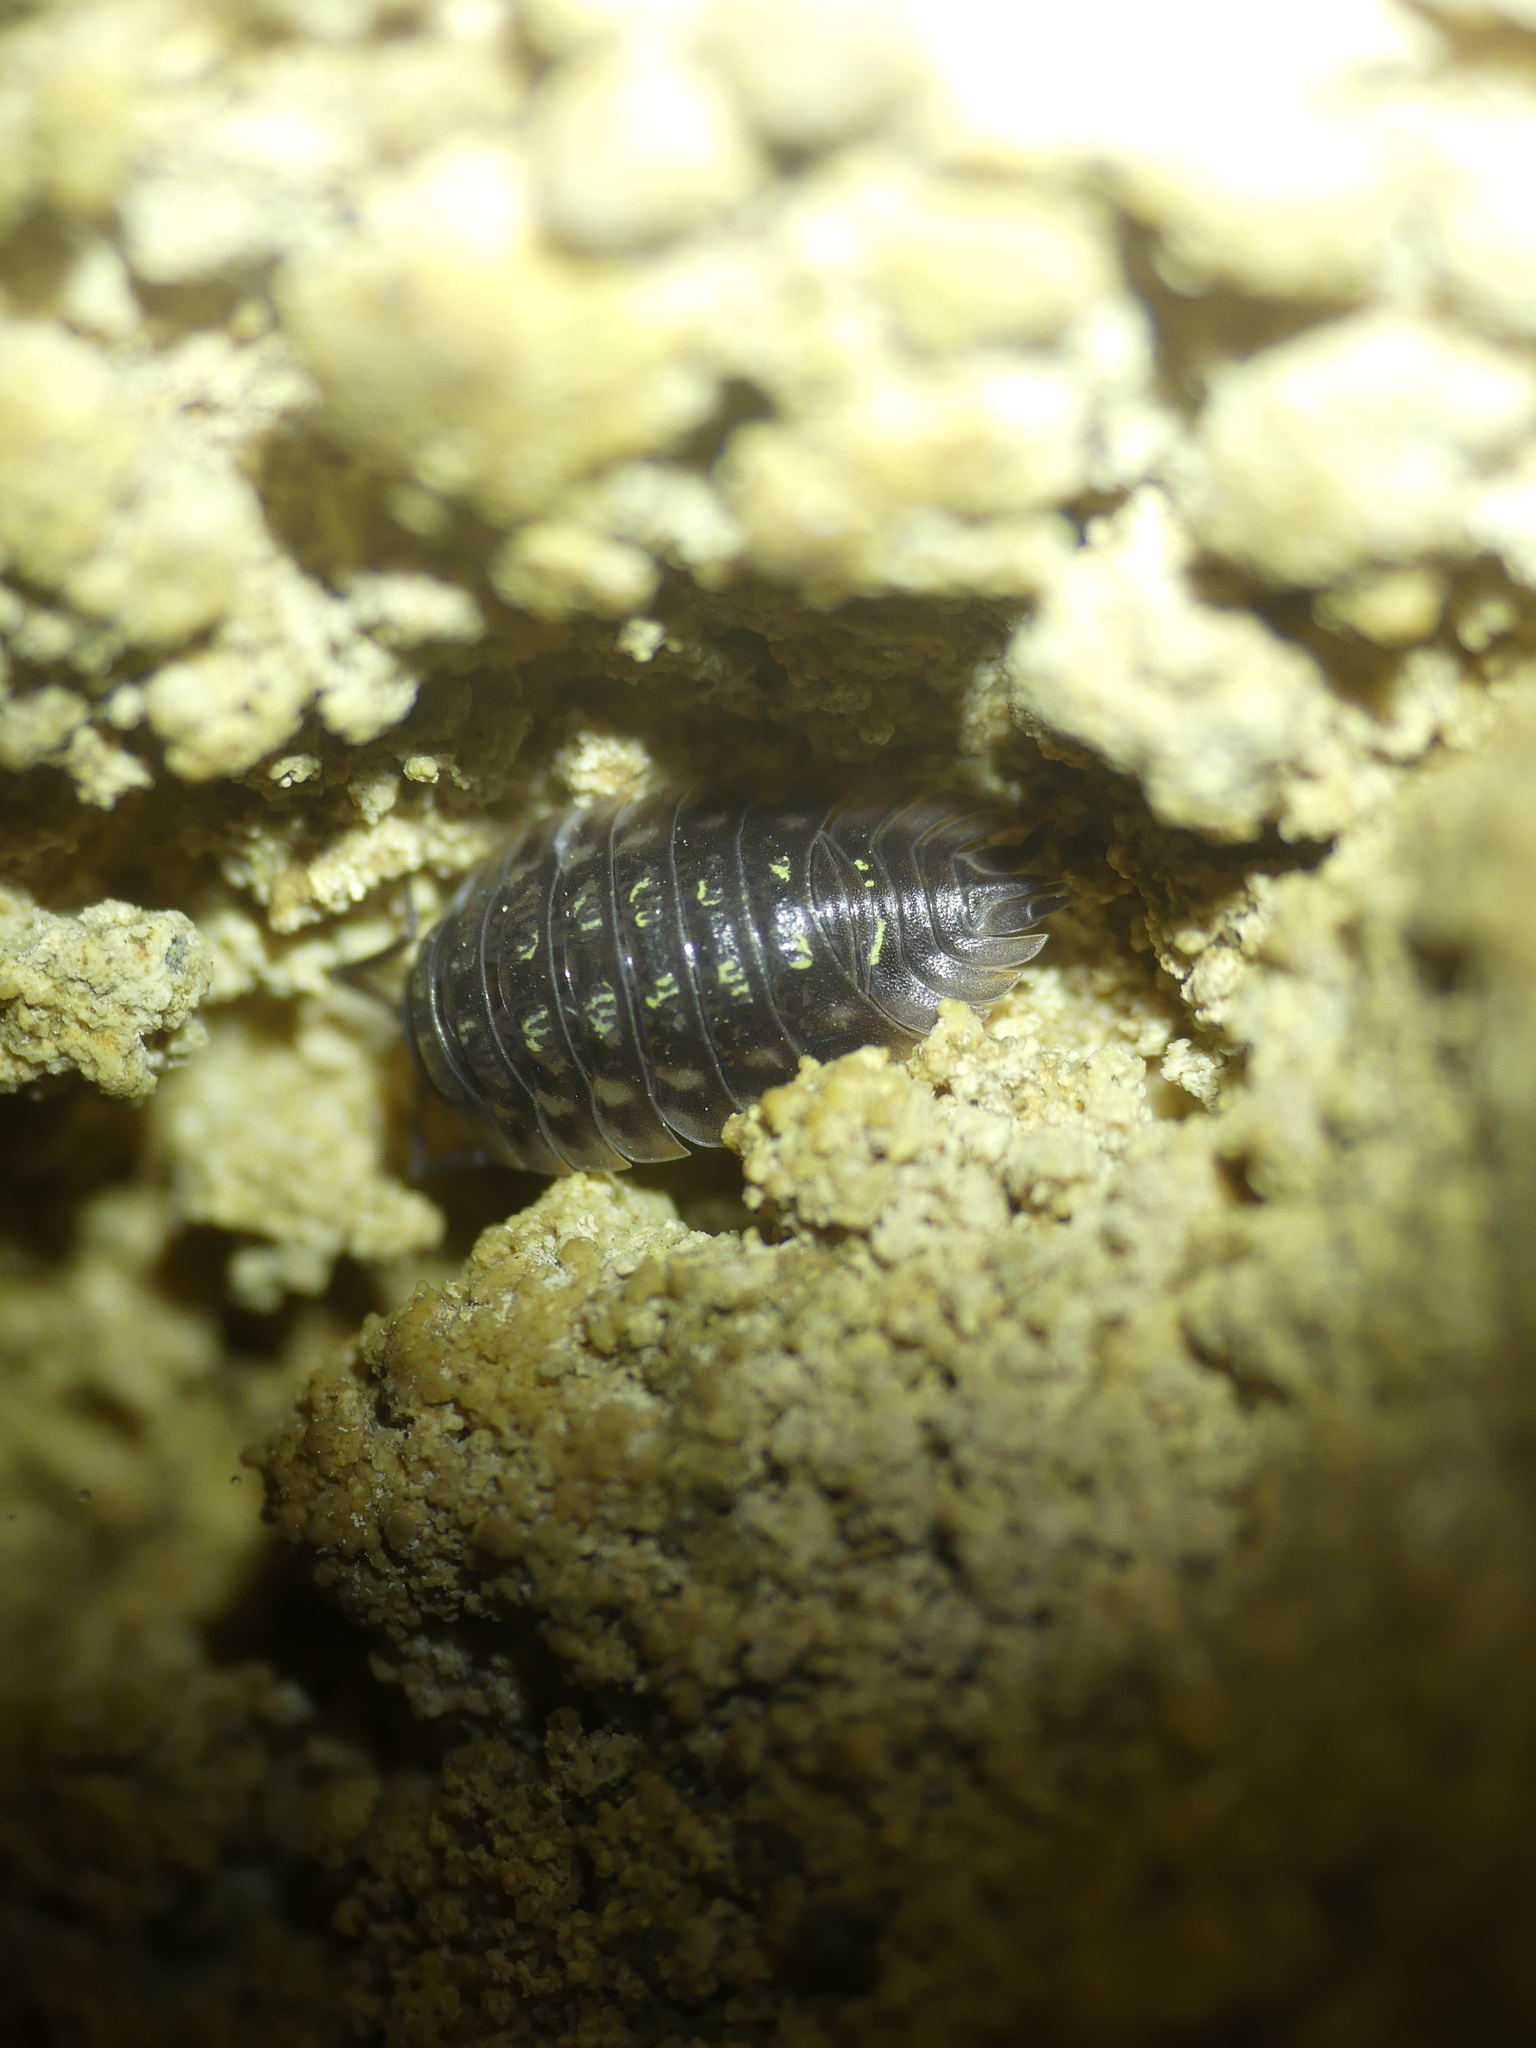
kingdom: Animalia
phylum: Arthropoda
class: Malacostraca
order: Isopoda
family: Oniscidae
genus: Oniscus
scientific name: Oniscus asellus
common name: Common shiny woodlouse
